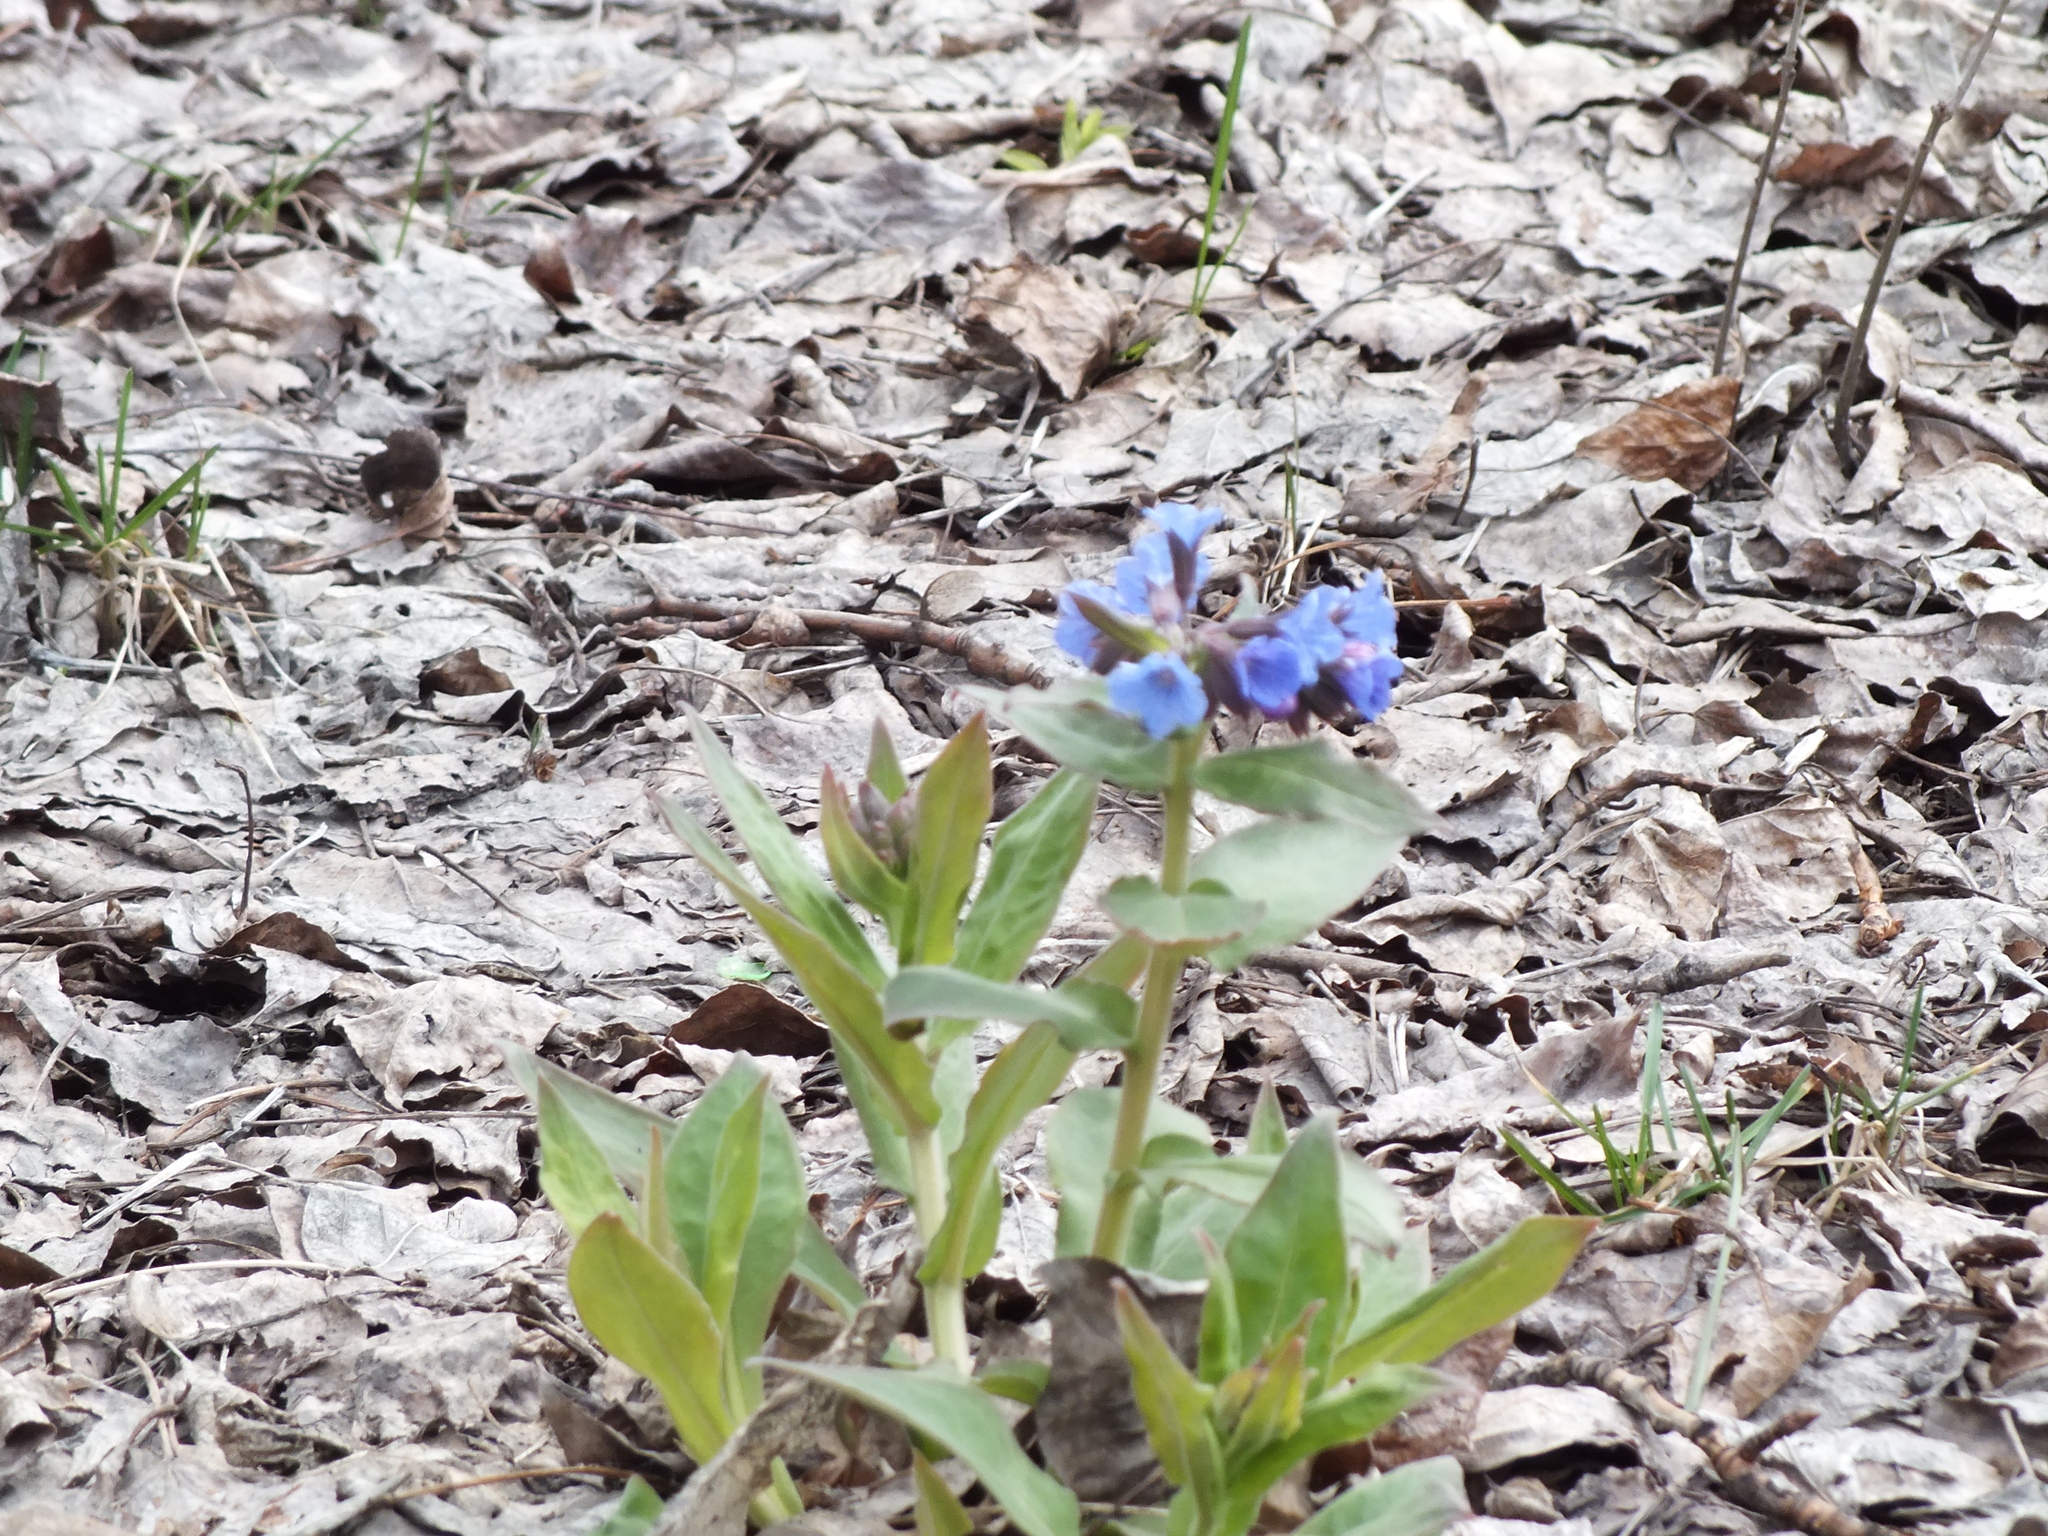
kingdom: Plantae
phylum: Tracheophyta
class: Magnoliopsida
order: Boraginales
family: Boraginaceae
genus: Pulmonaria
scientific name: Pulmonaria mollis
